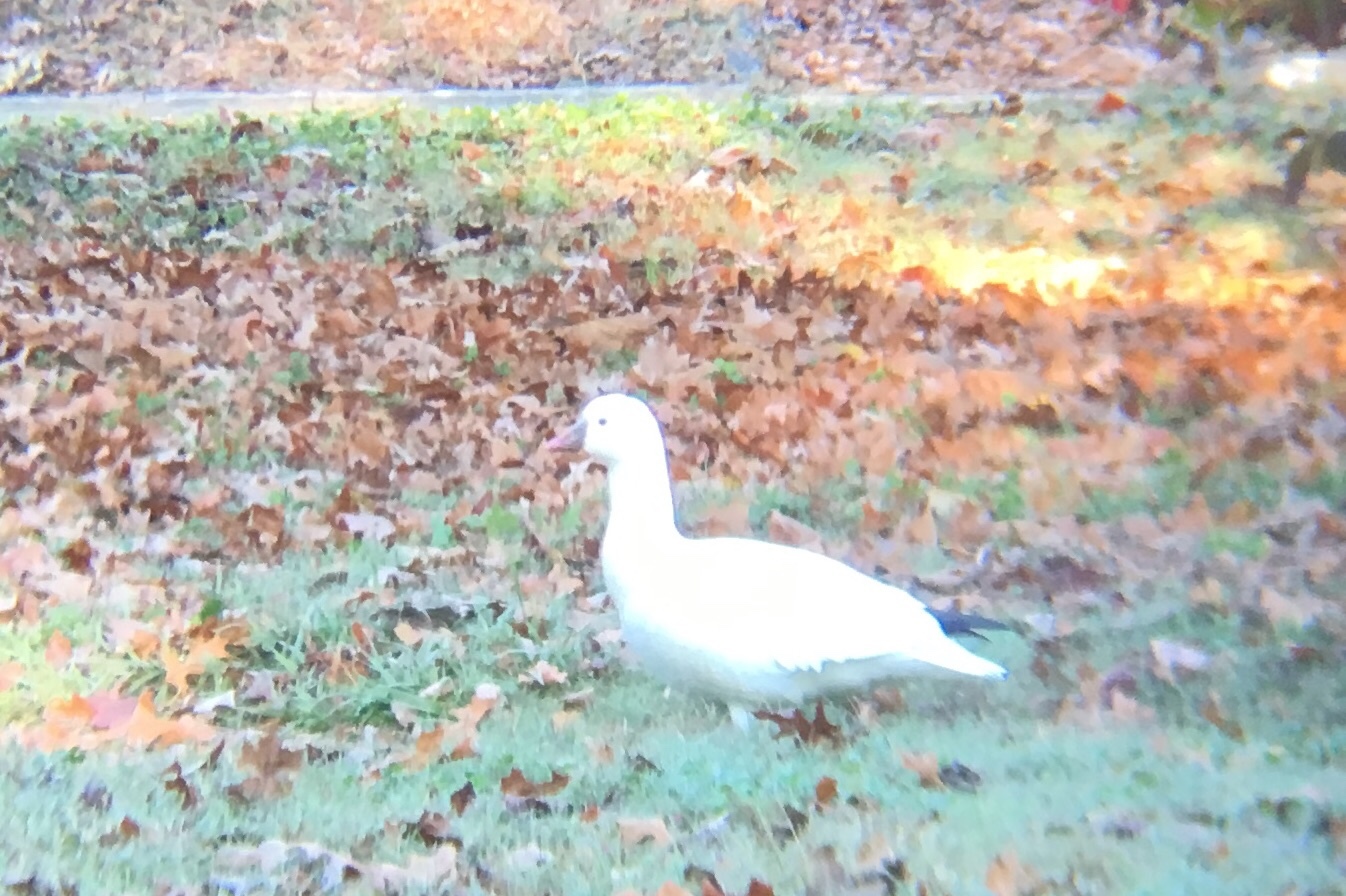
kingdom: Animalia
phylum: Chordata
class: Aves
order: Anseriformes
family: Anatidae
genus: Anser
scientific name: Anser rossii
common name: Ross's goose
